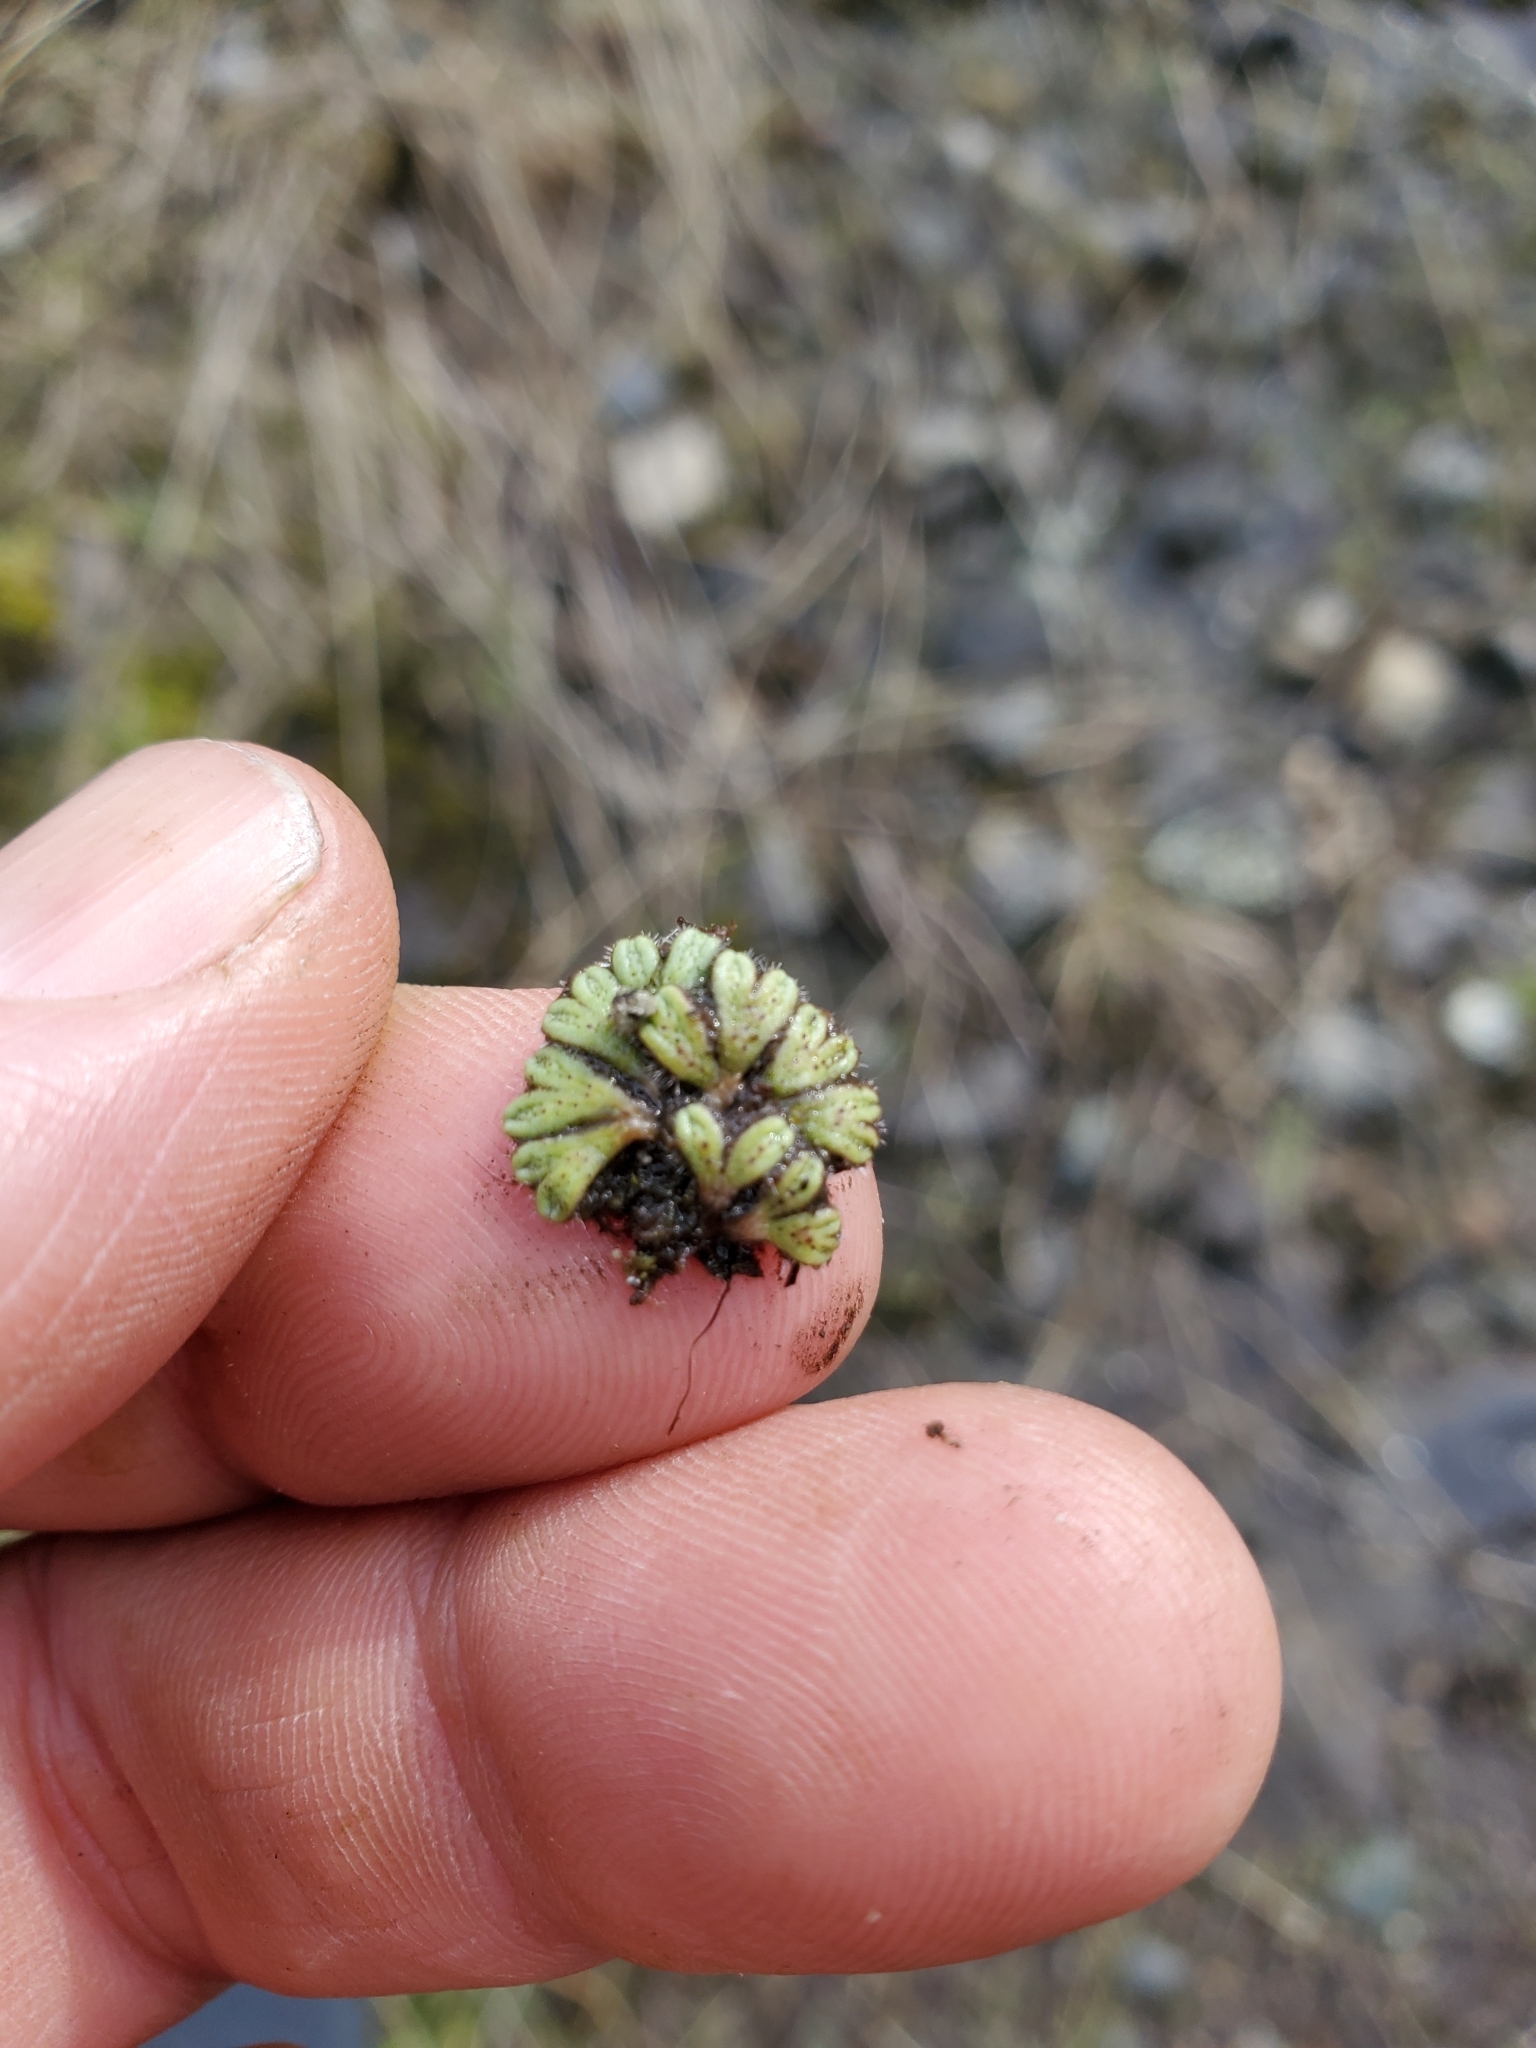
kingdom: Plantae
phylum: Marchantiophyta
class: Marchantiopsida
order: Marchantiales
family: Ricciaceae
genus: Riccia
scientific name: Riccia beyrichiana
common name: Purple crystalwort
